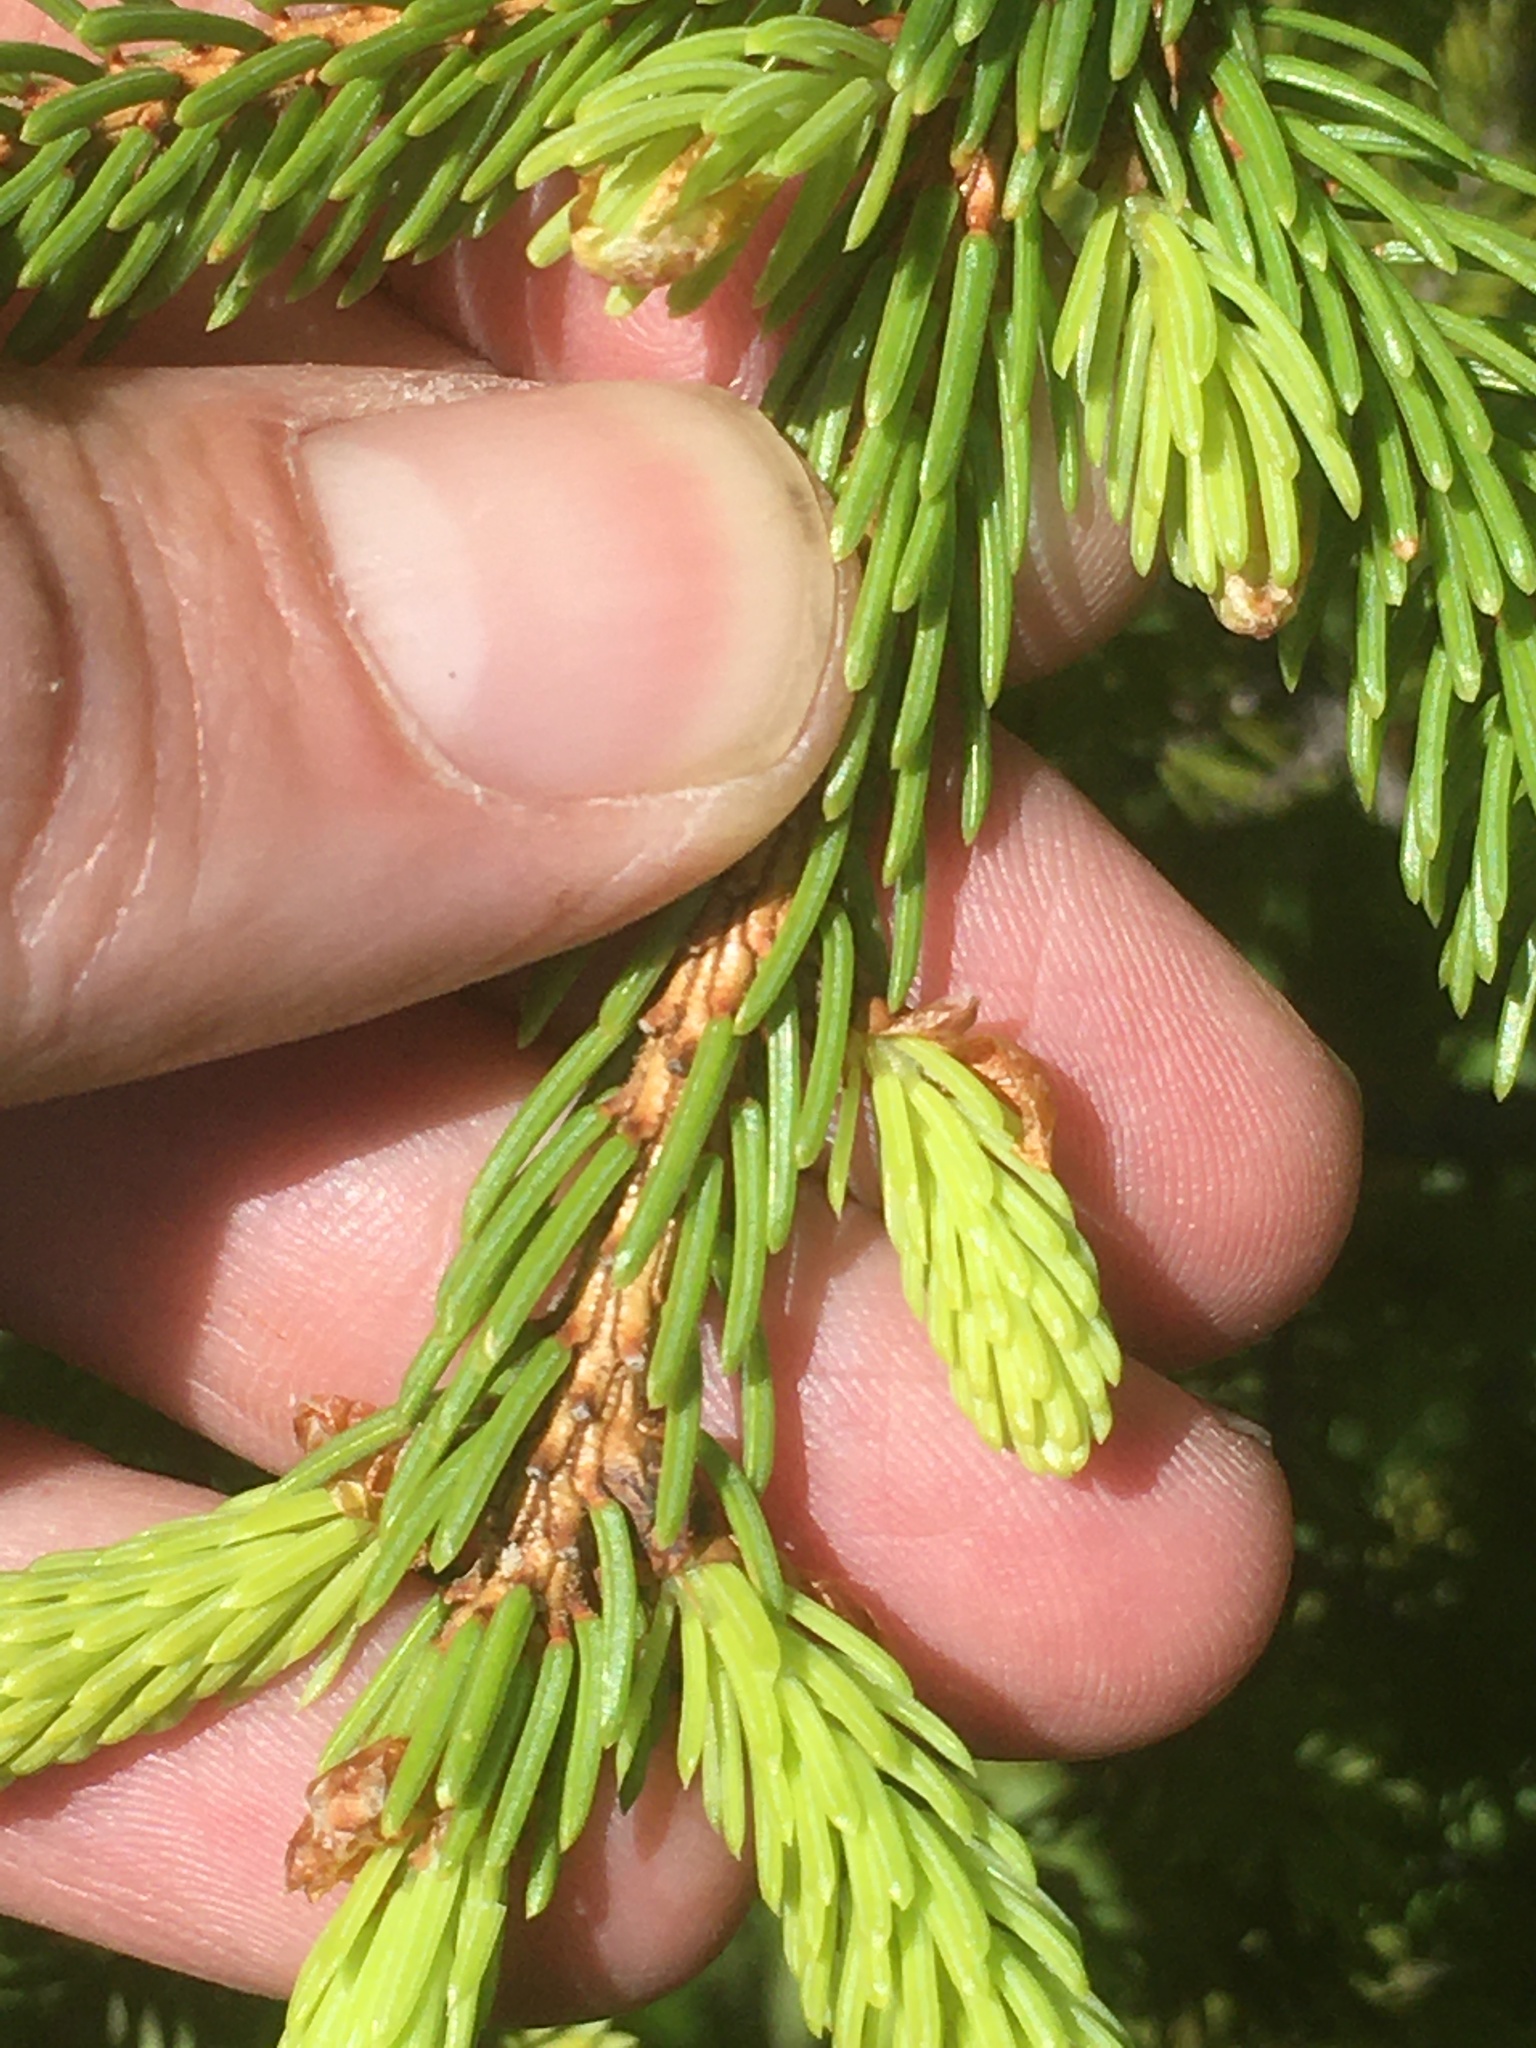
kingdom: Plantae
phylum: Tracheophyta
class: Pinopsida
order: Pinales
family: Pinaceae
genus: Picea
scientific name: Picea glauca
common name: White spruce
